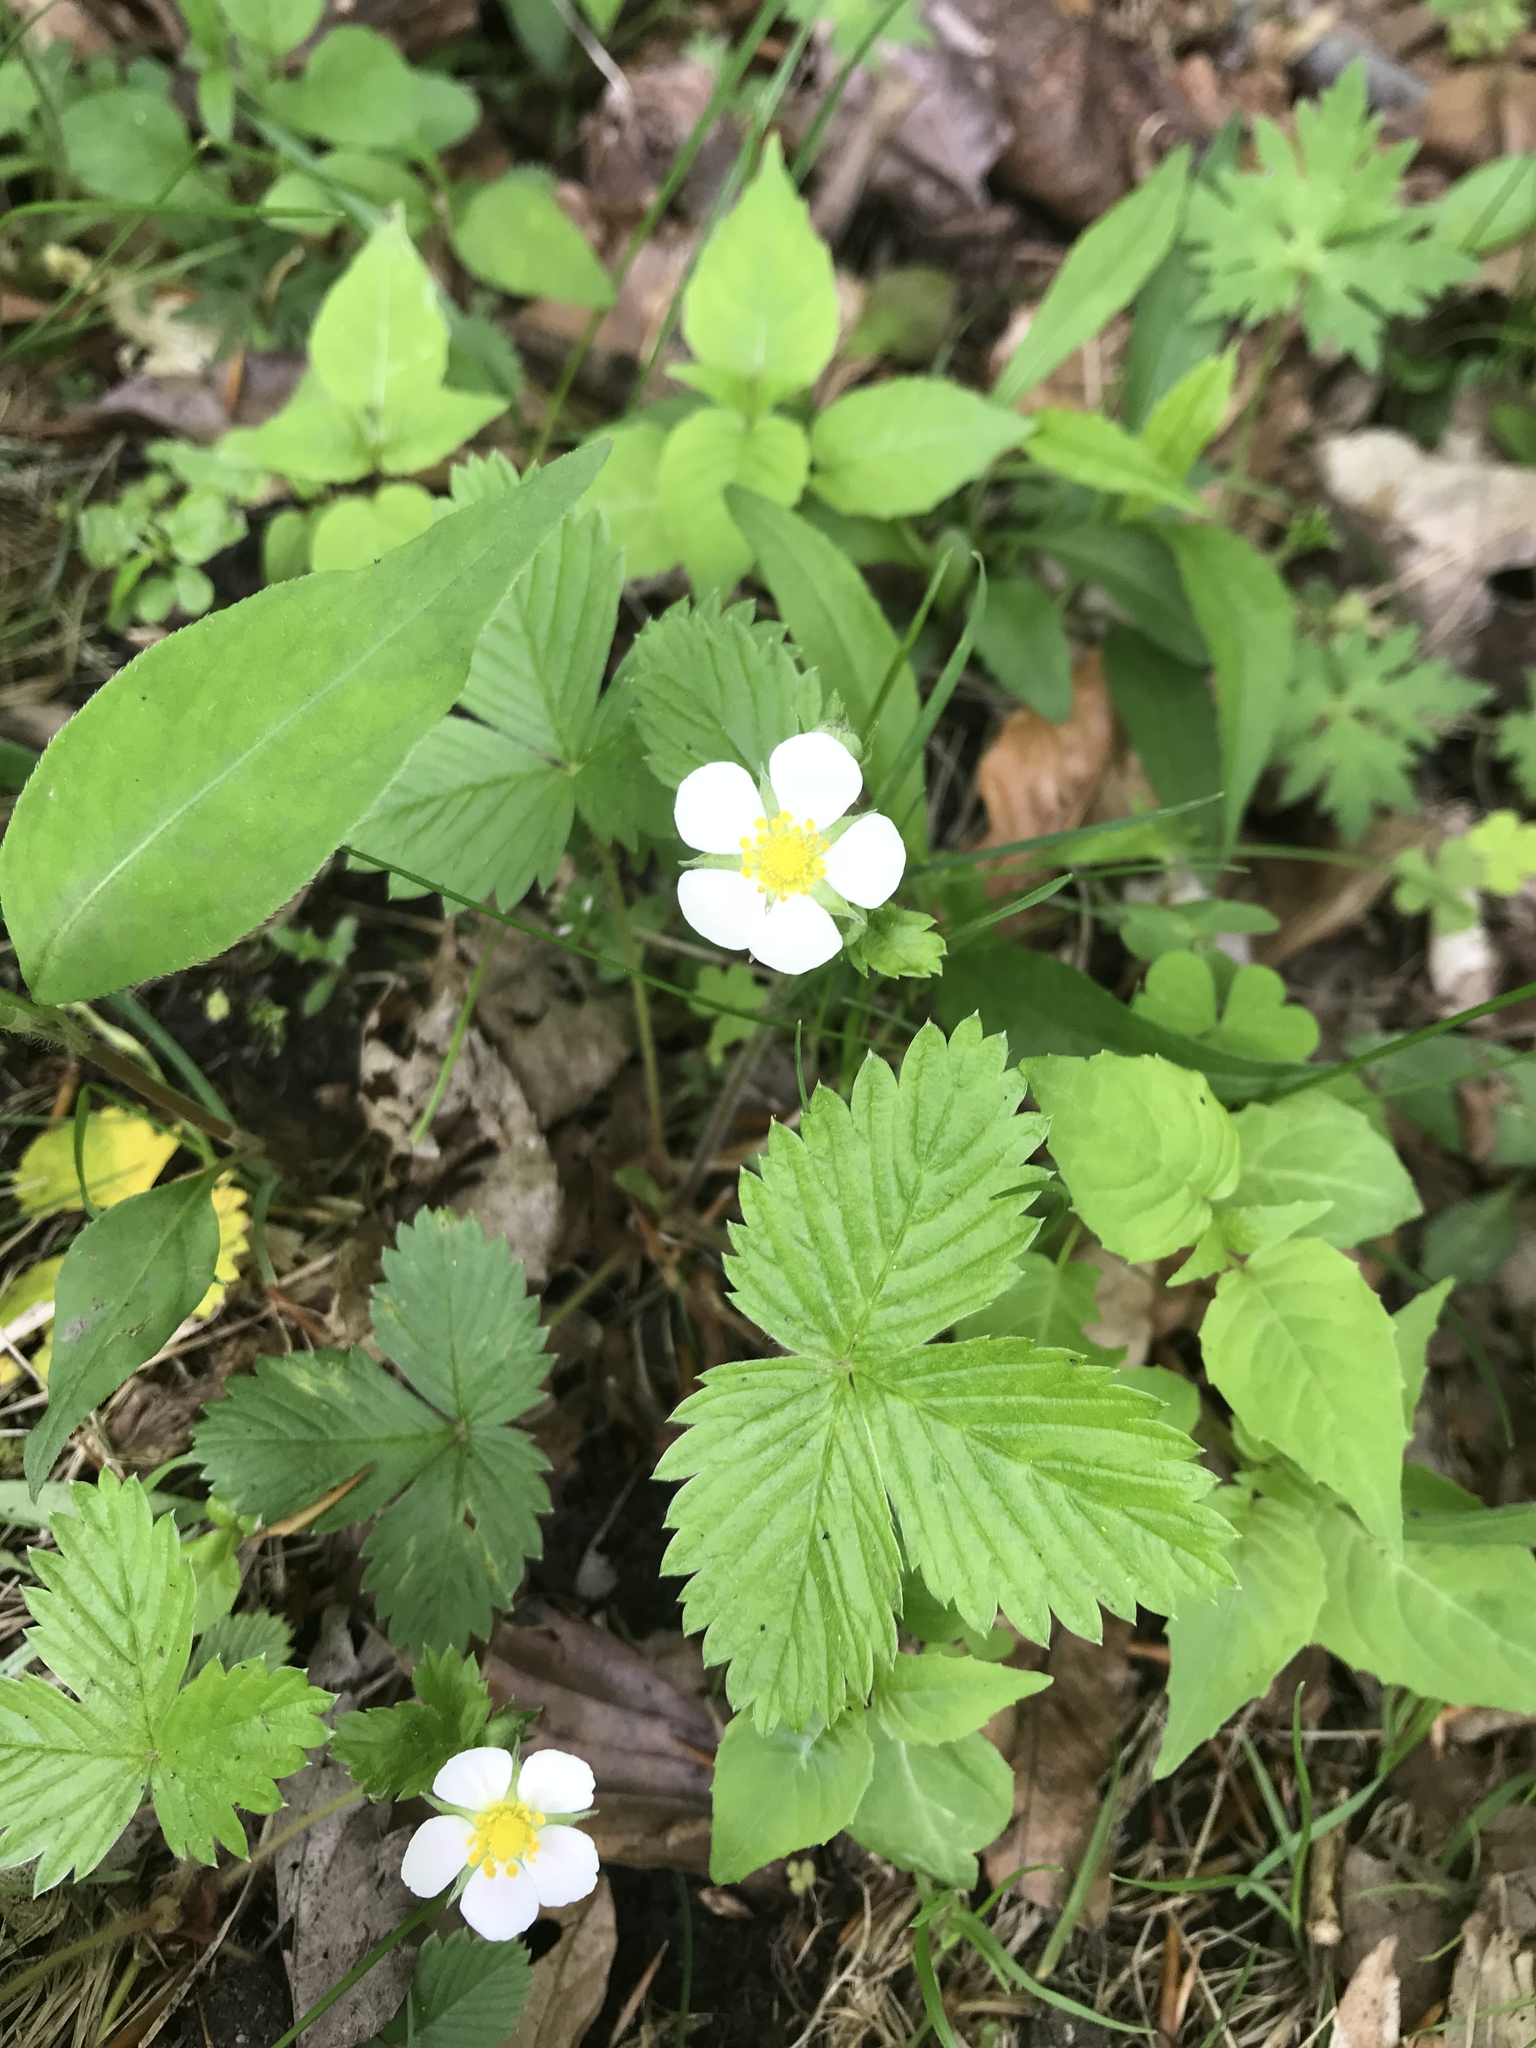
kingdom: Plantae
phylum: Tracheophyta
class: Magnoliopsida
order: Rosales
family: Rosaceae
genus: Fragaria
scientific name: Fragaria vesca
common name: Wild strawberry
